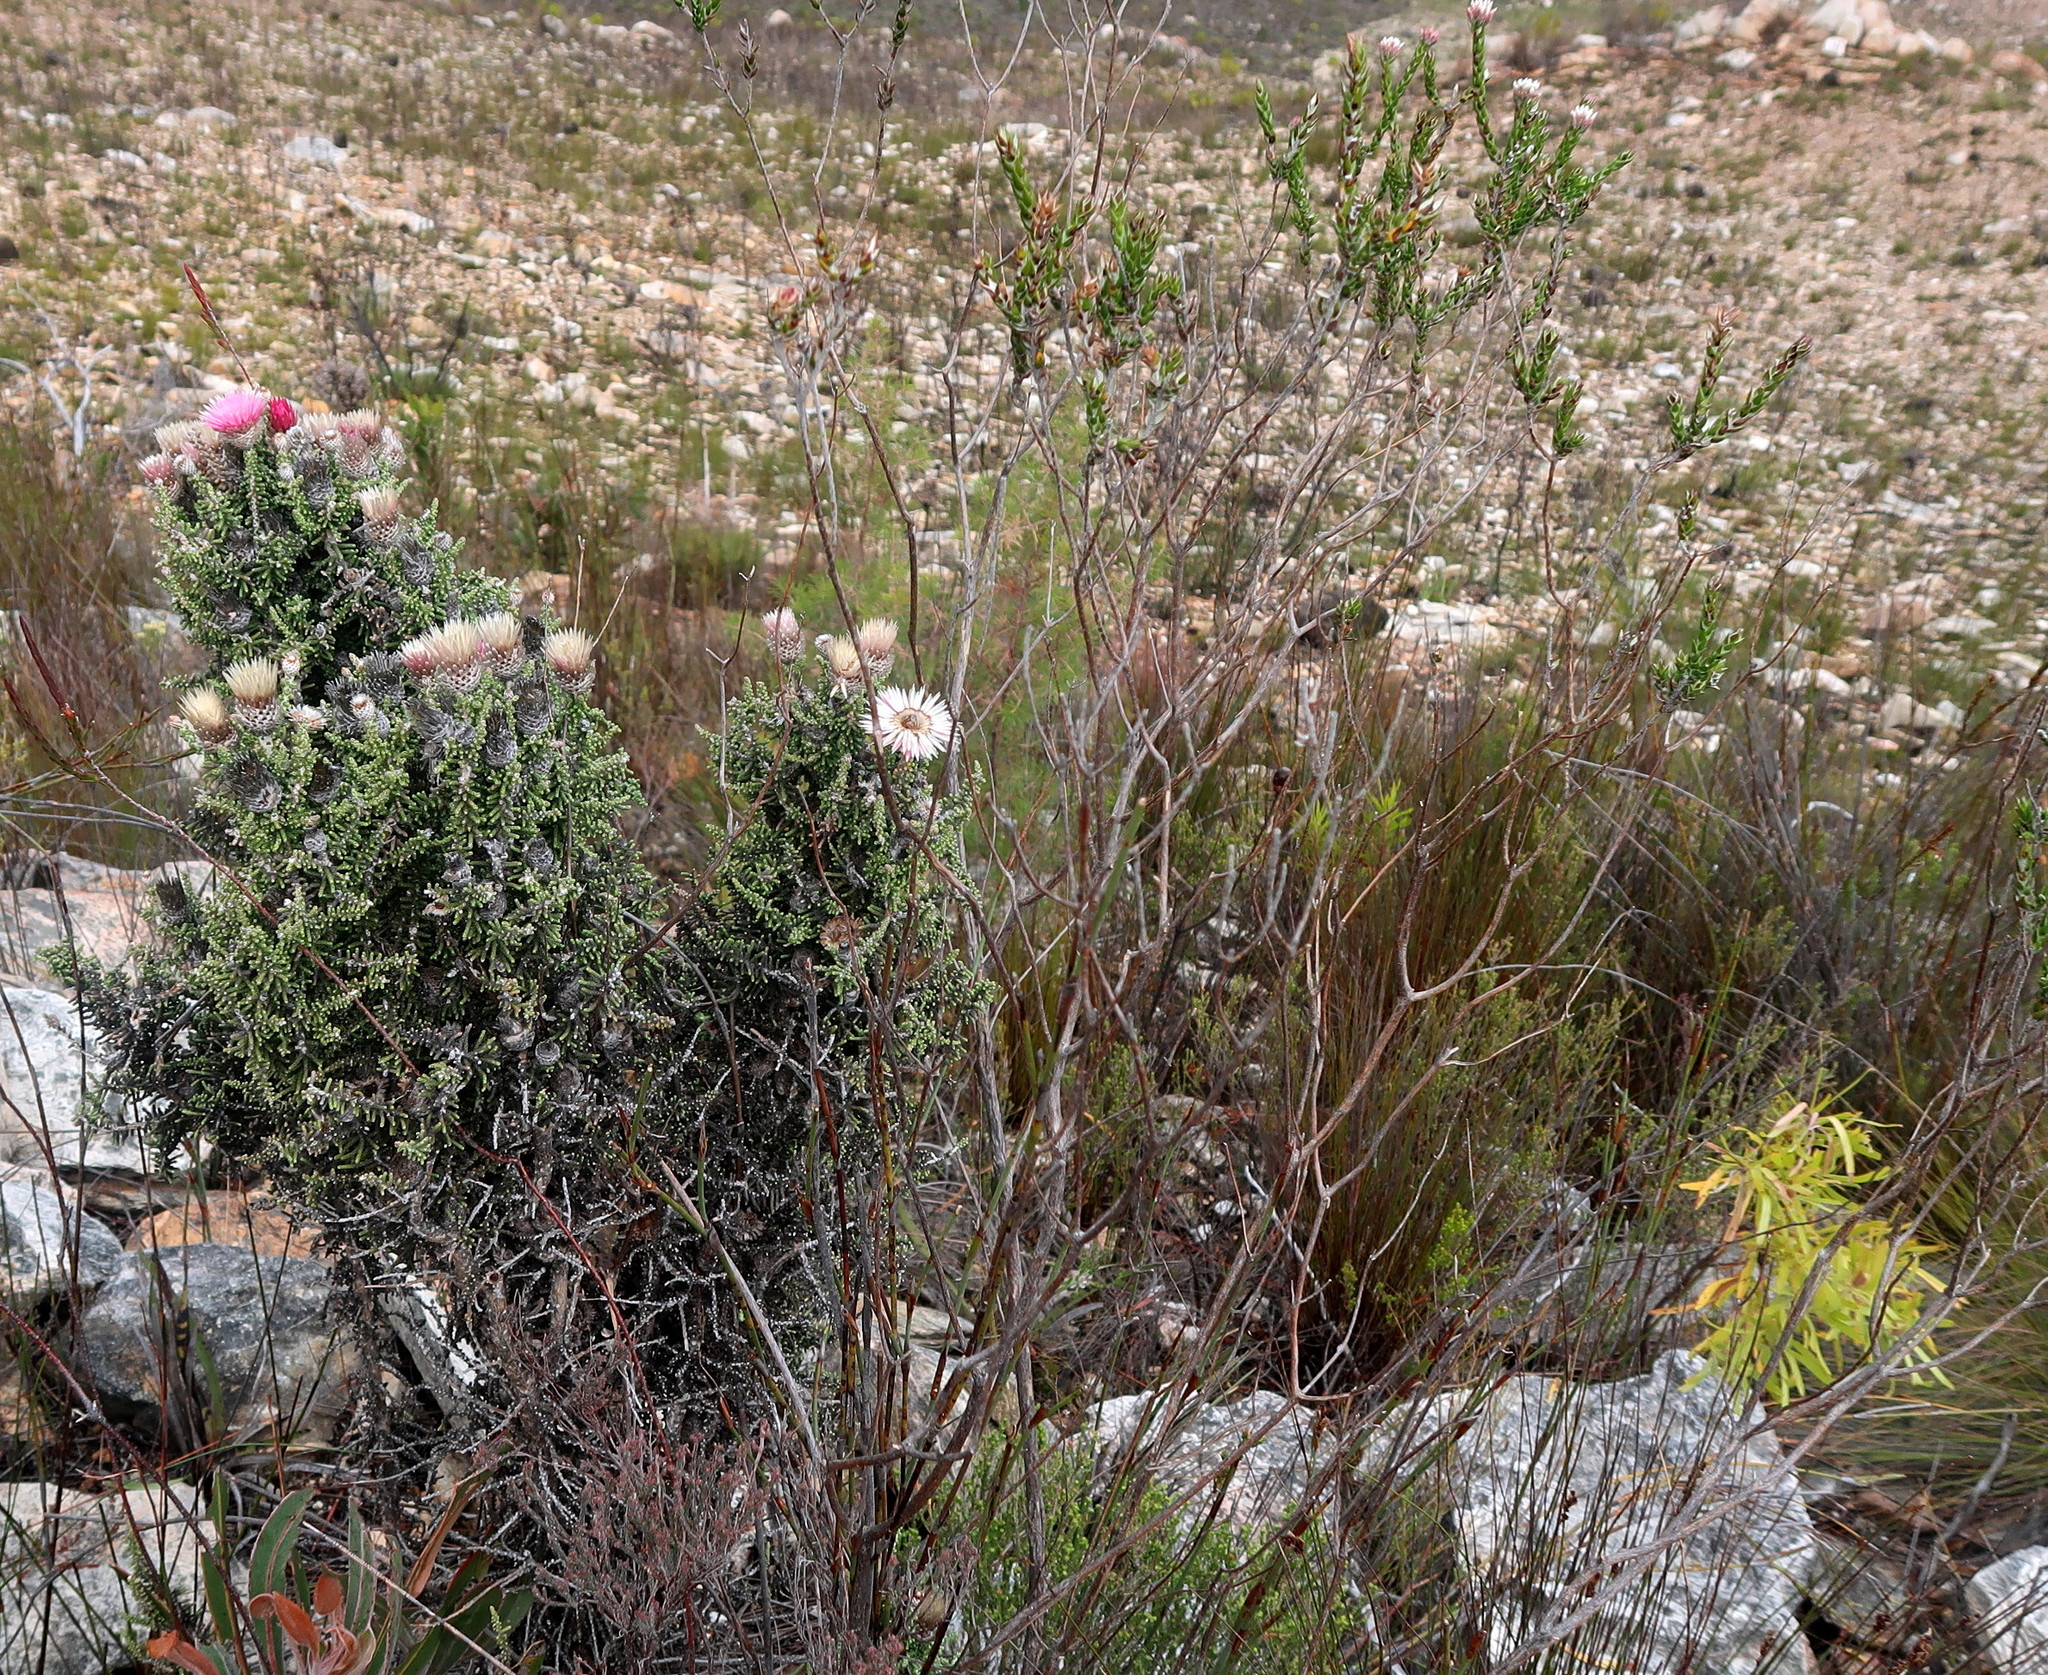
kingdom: Plantae
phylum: Tracheophyta
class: Magnoliopsida
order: Asterales
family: Asteraceae
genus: Phaenocoma
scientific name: Phaenocoma prolifera
